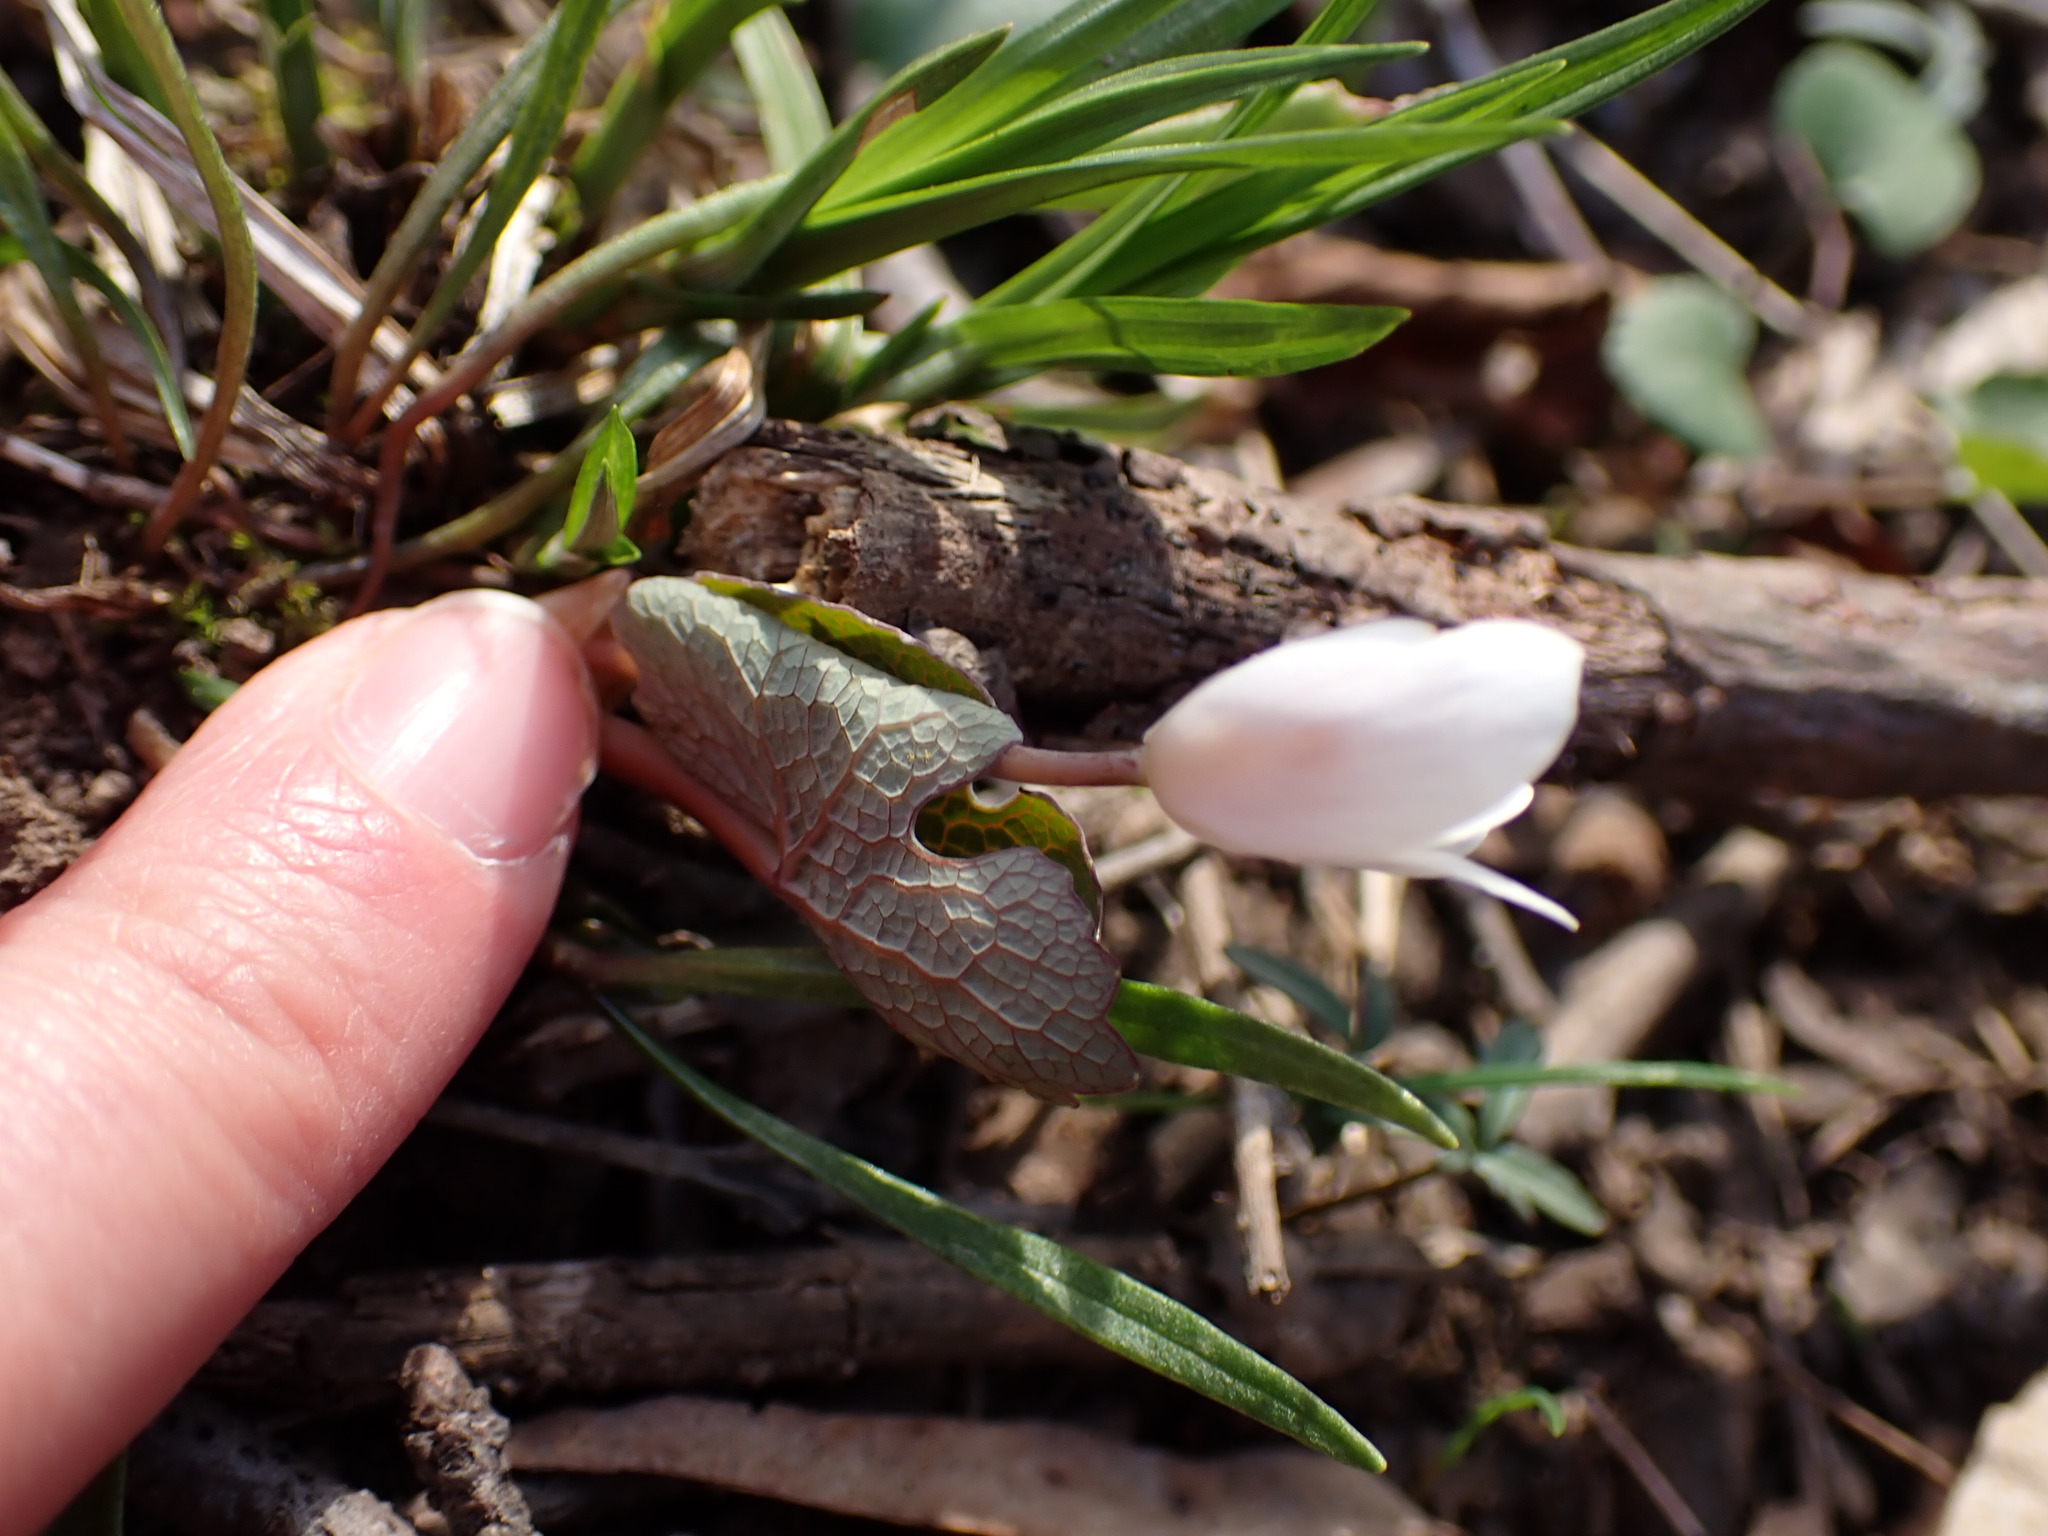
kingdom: Plantae
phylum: Tracheophyta
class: Magnoliopsida
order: Ranunculales
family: Papaveraceae
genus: Sanguinaria
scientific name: Sanguinaria canadensis
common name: Bloodroot
